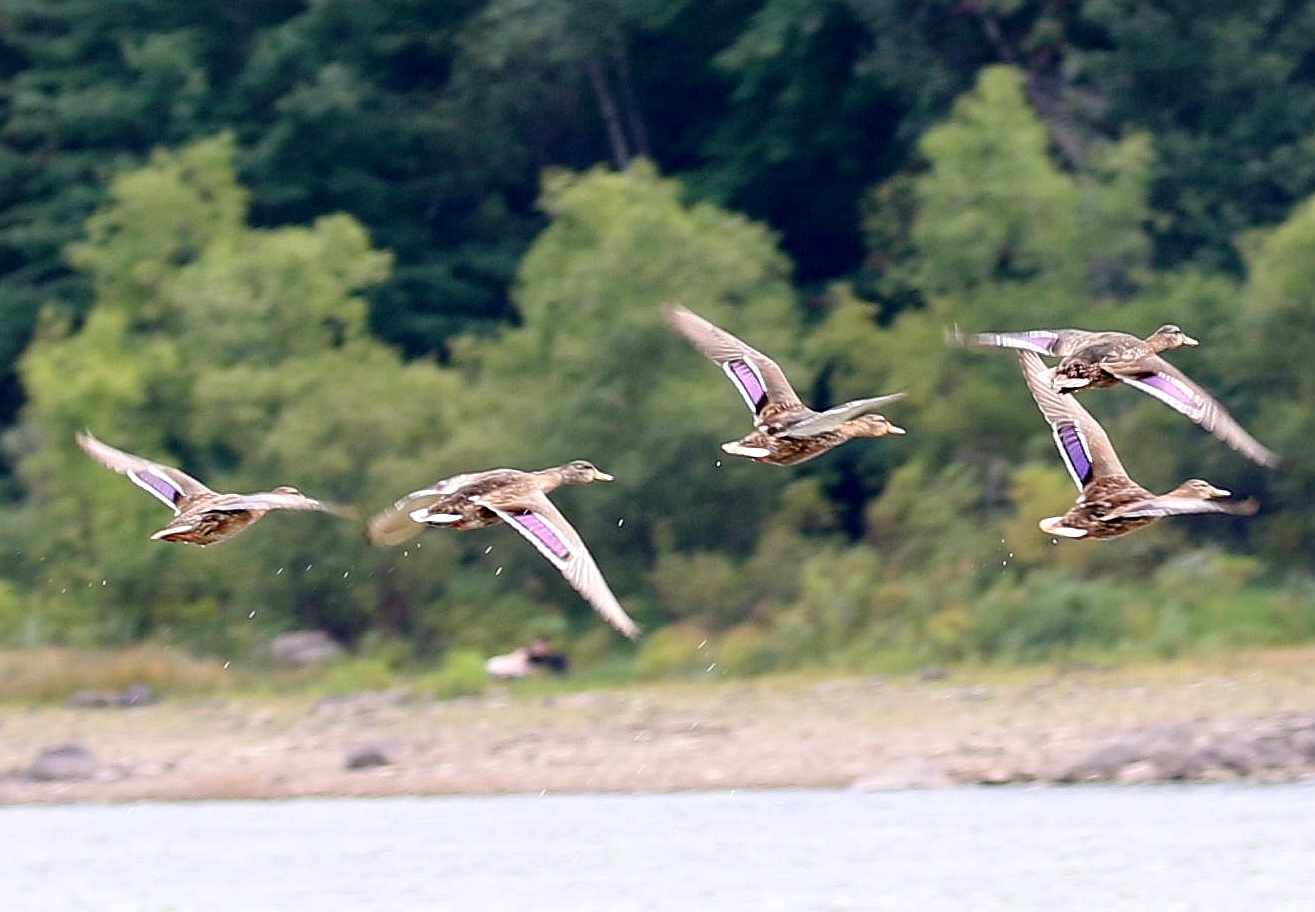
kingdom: Animalia
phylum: Chordata
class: Aves
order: Anseriformes
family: Anatidae
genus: Anas
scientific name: Anas platyrhynchos
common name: Mallard
